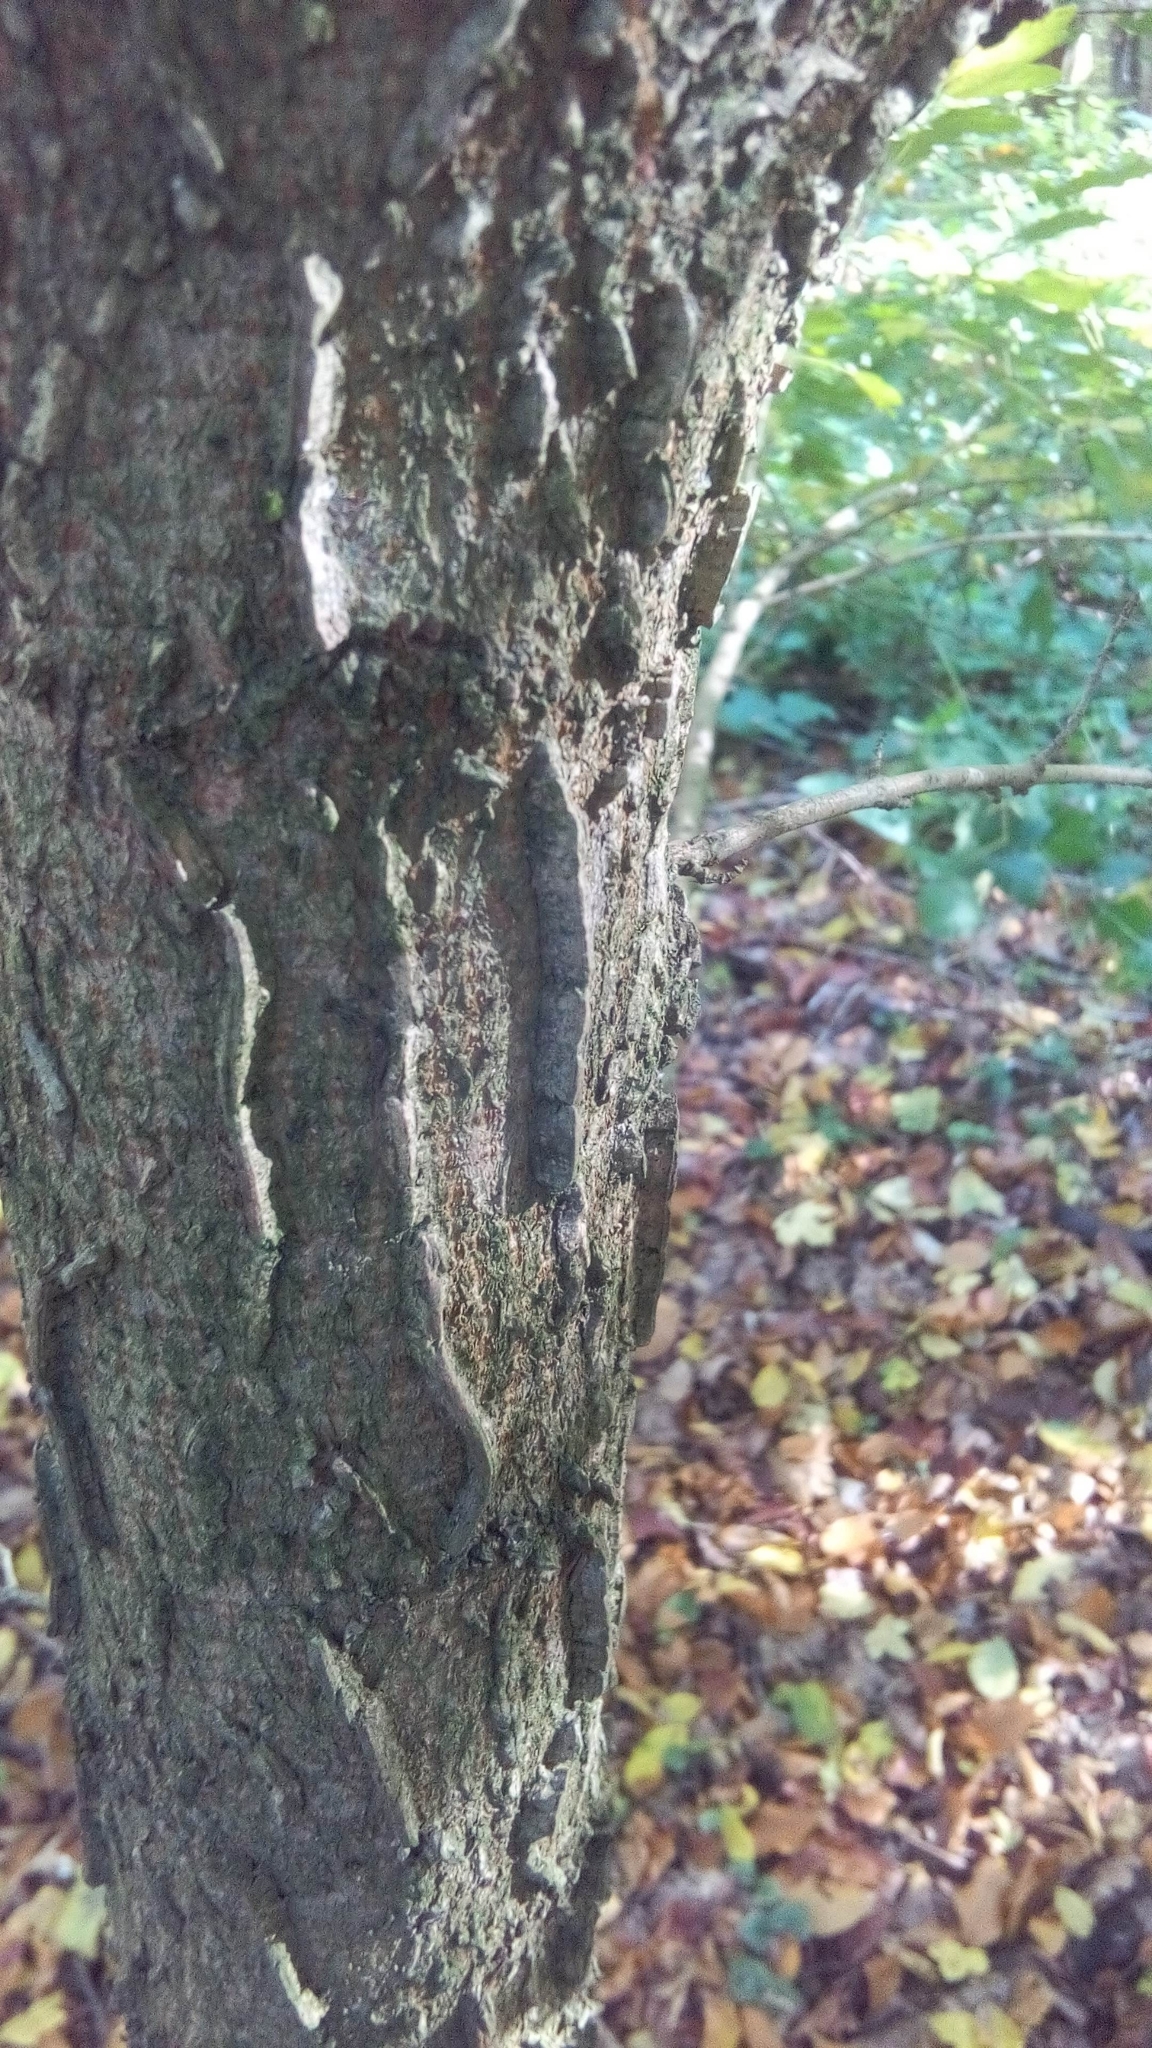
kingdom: Plantae
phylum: Tracheophyta
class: Magnoliopsida
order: Sapindales
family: Sapindaceae
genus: Acer
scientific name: Acer campestre
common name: Field maple
